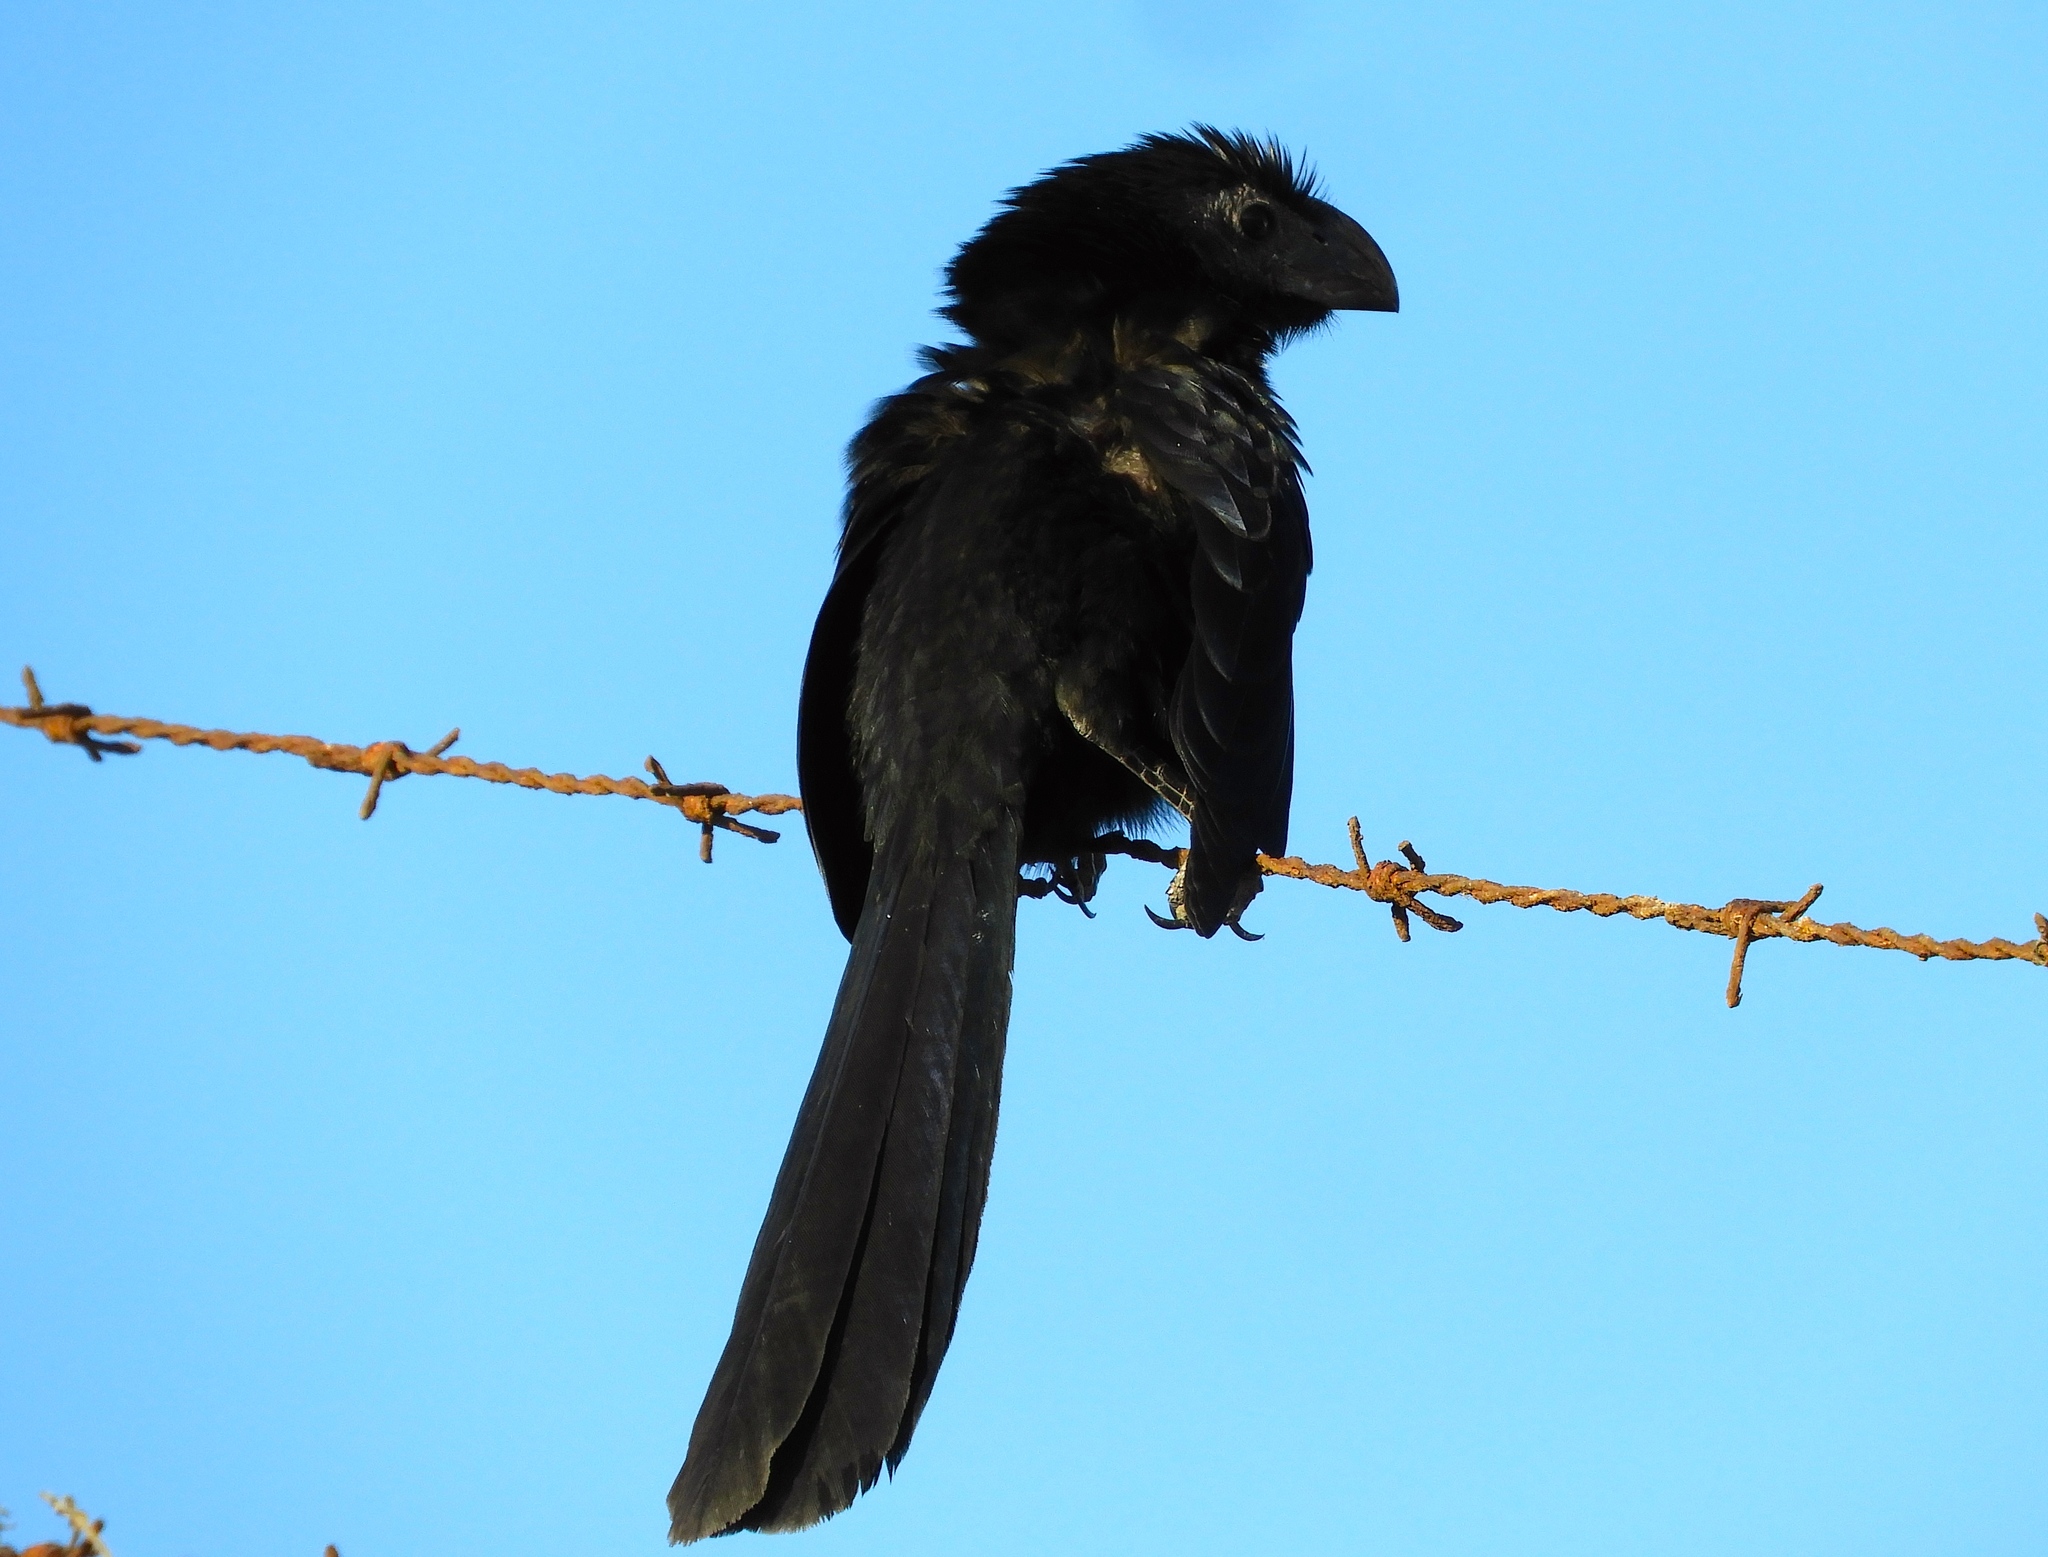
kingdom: Animalia
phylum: Chordata
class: Aves
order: Cuculiformes
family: Cuculidae
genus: Crotophaga
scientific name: Crotophaga sulcirostris
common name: Groove-billed ani
